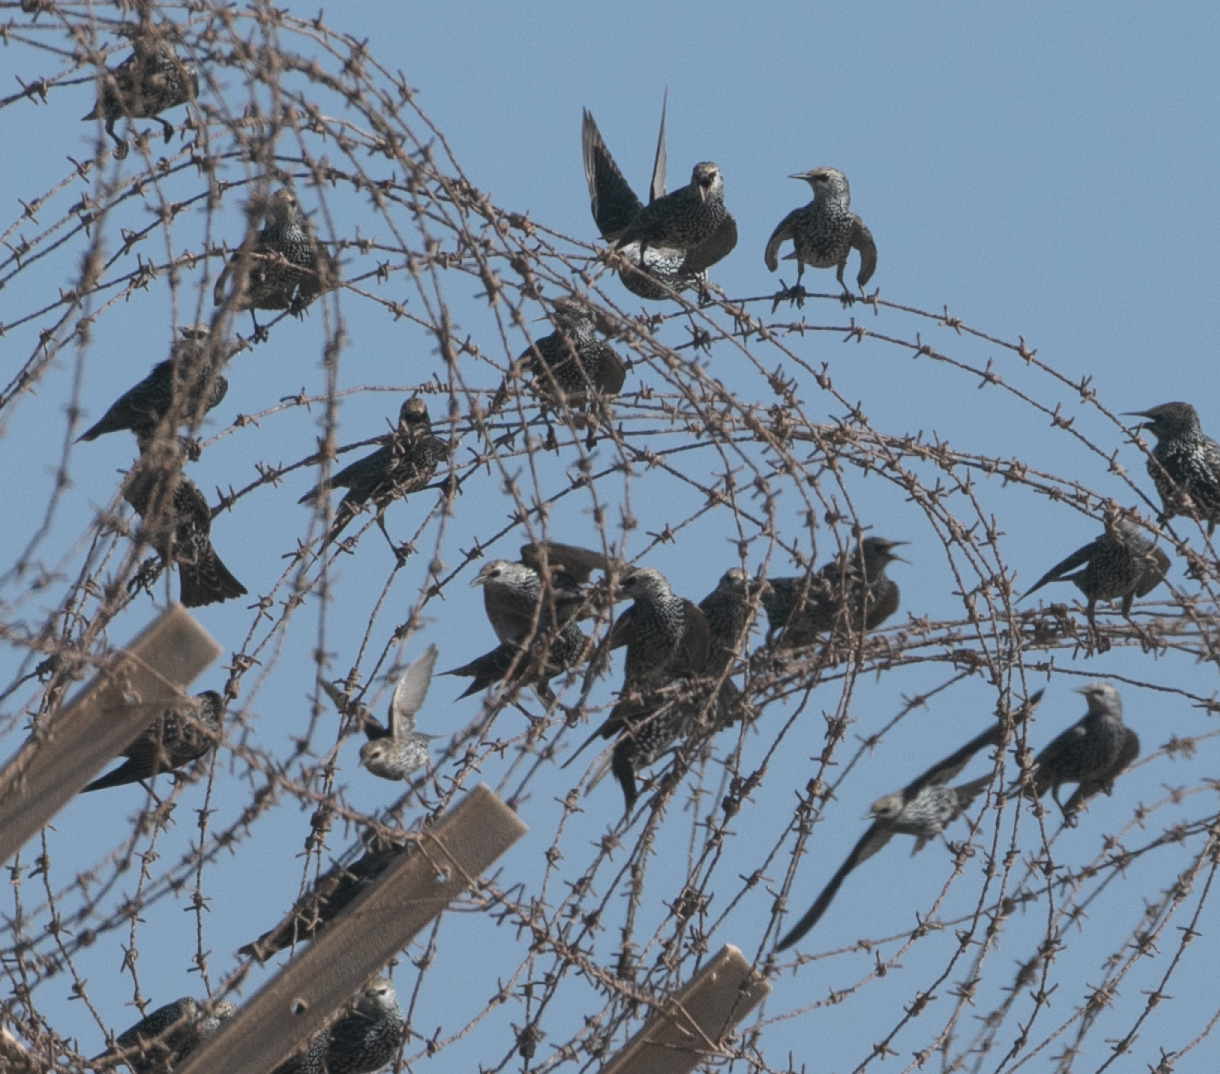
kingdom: Animalia
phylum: Chordata
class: Aves
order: Passeriformes
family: Sturnidae
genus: Sturnus
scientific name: Sturnus vulgaris
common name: Common starling
